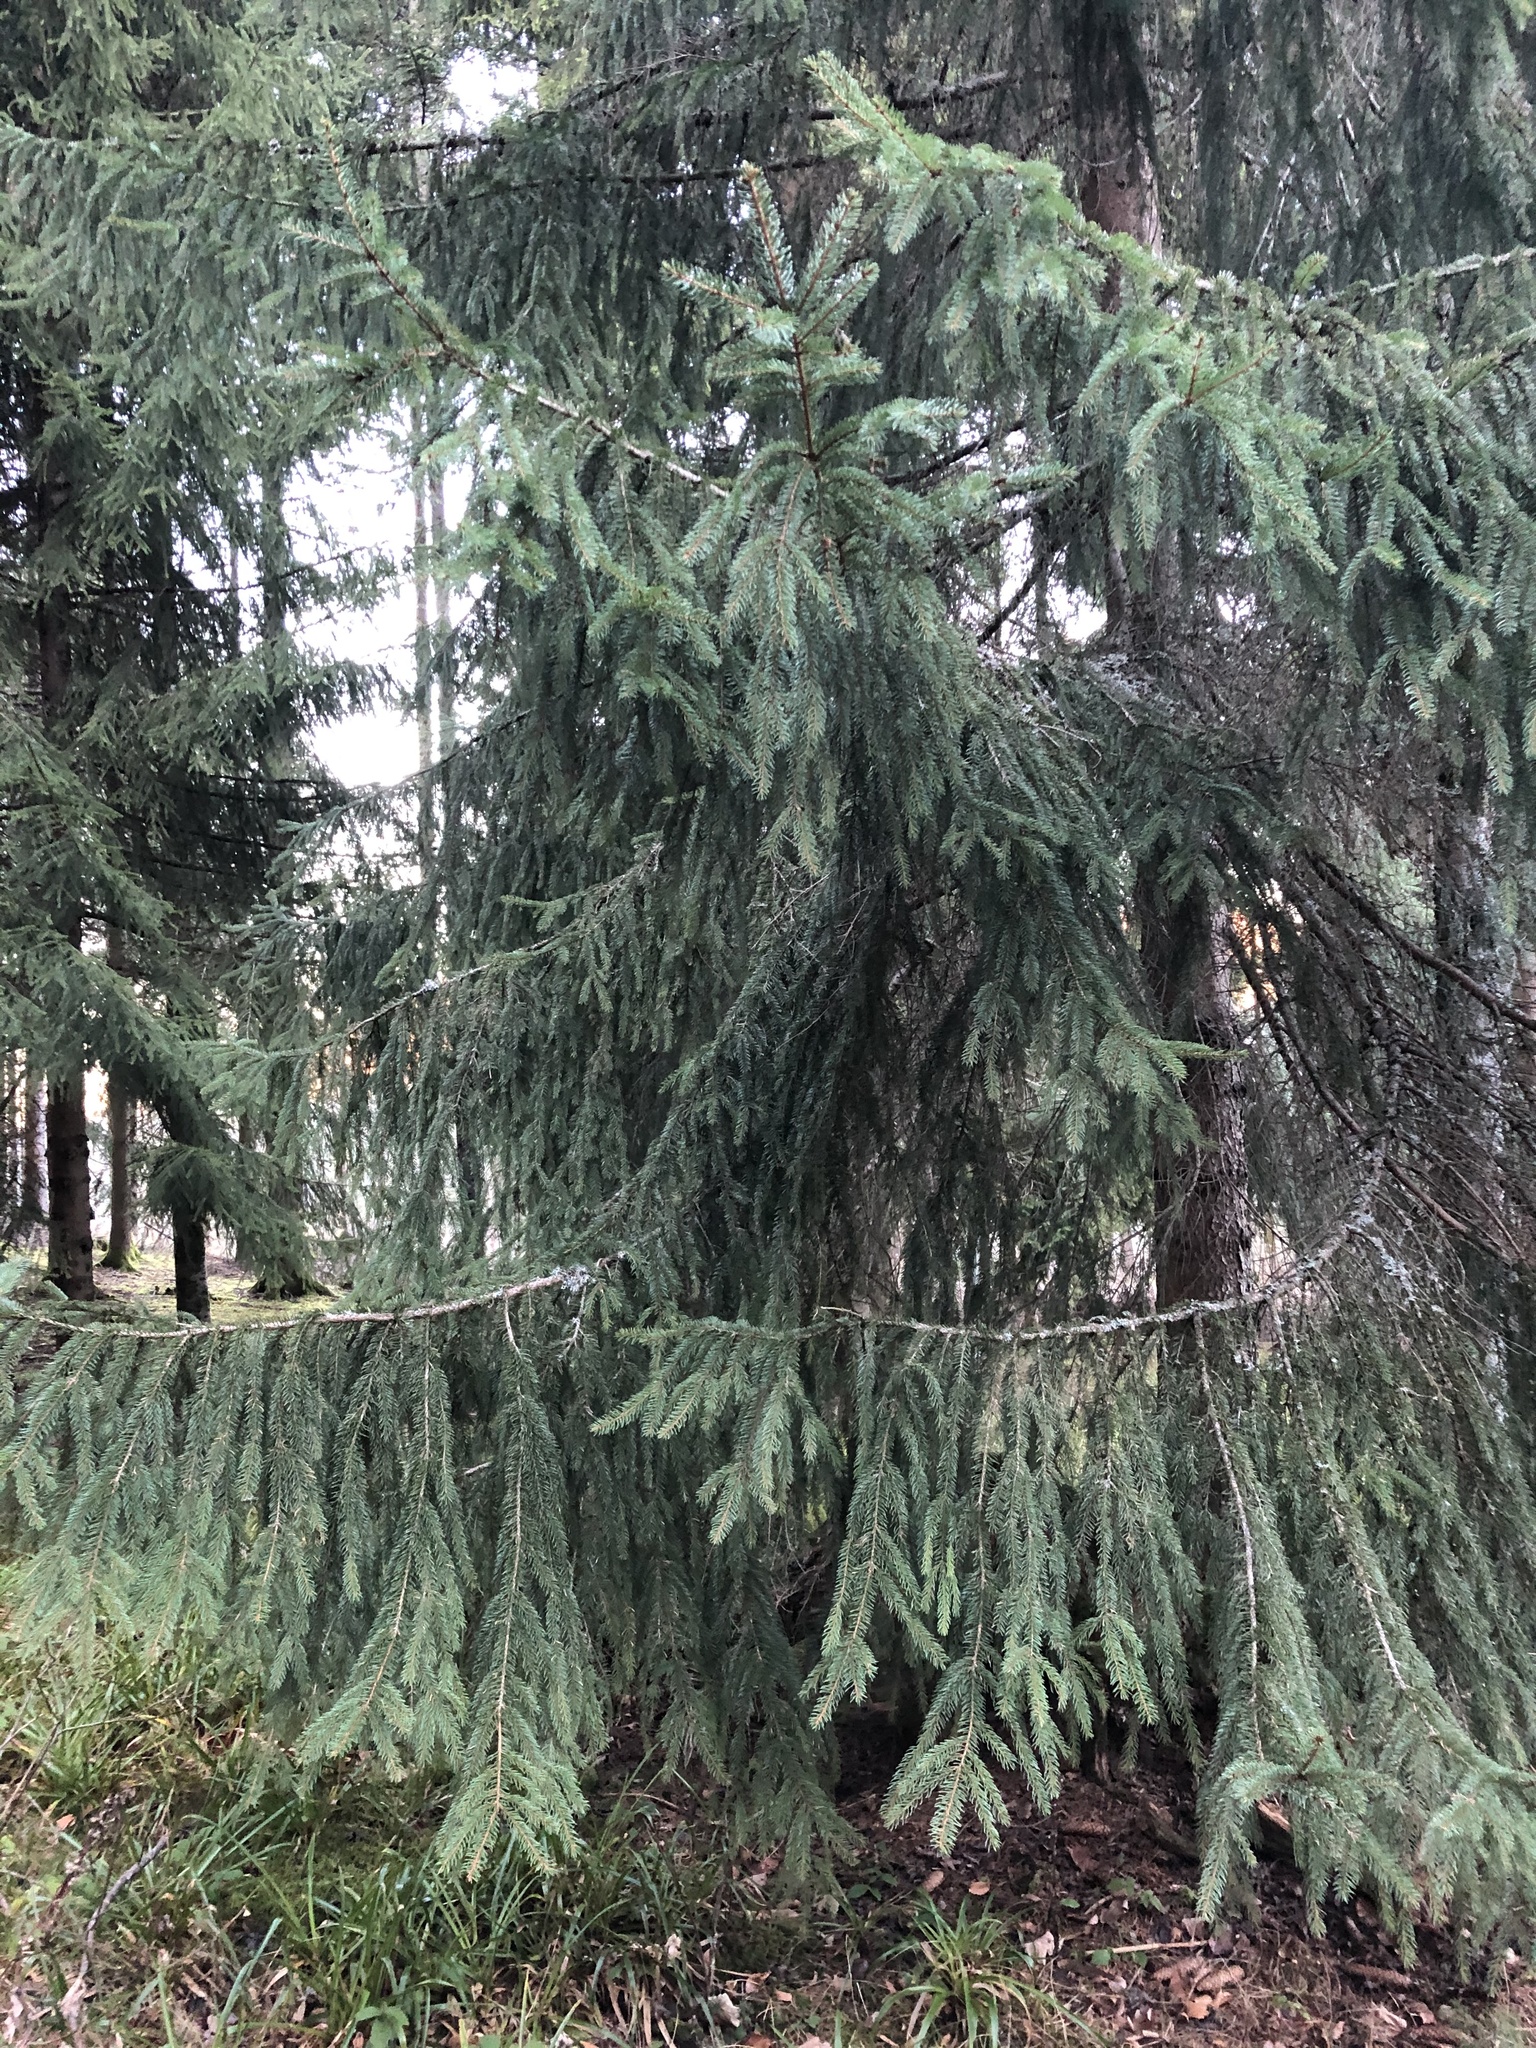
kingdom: Plantae
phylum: Tracheophyta
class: Pinopsida
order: Pinales
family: Pinaceae
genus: Picea
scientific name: Picea abies
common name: Norway spruce
